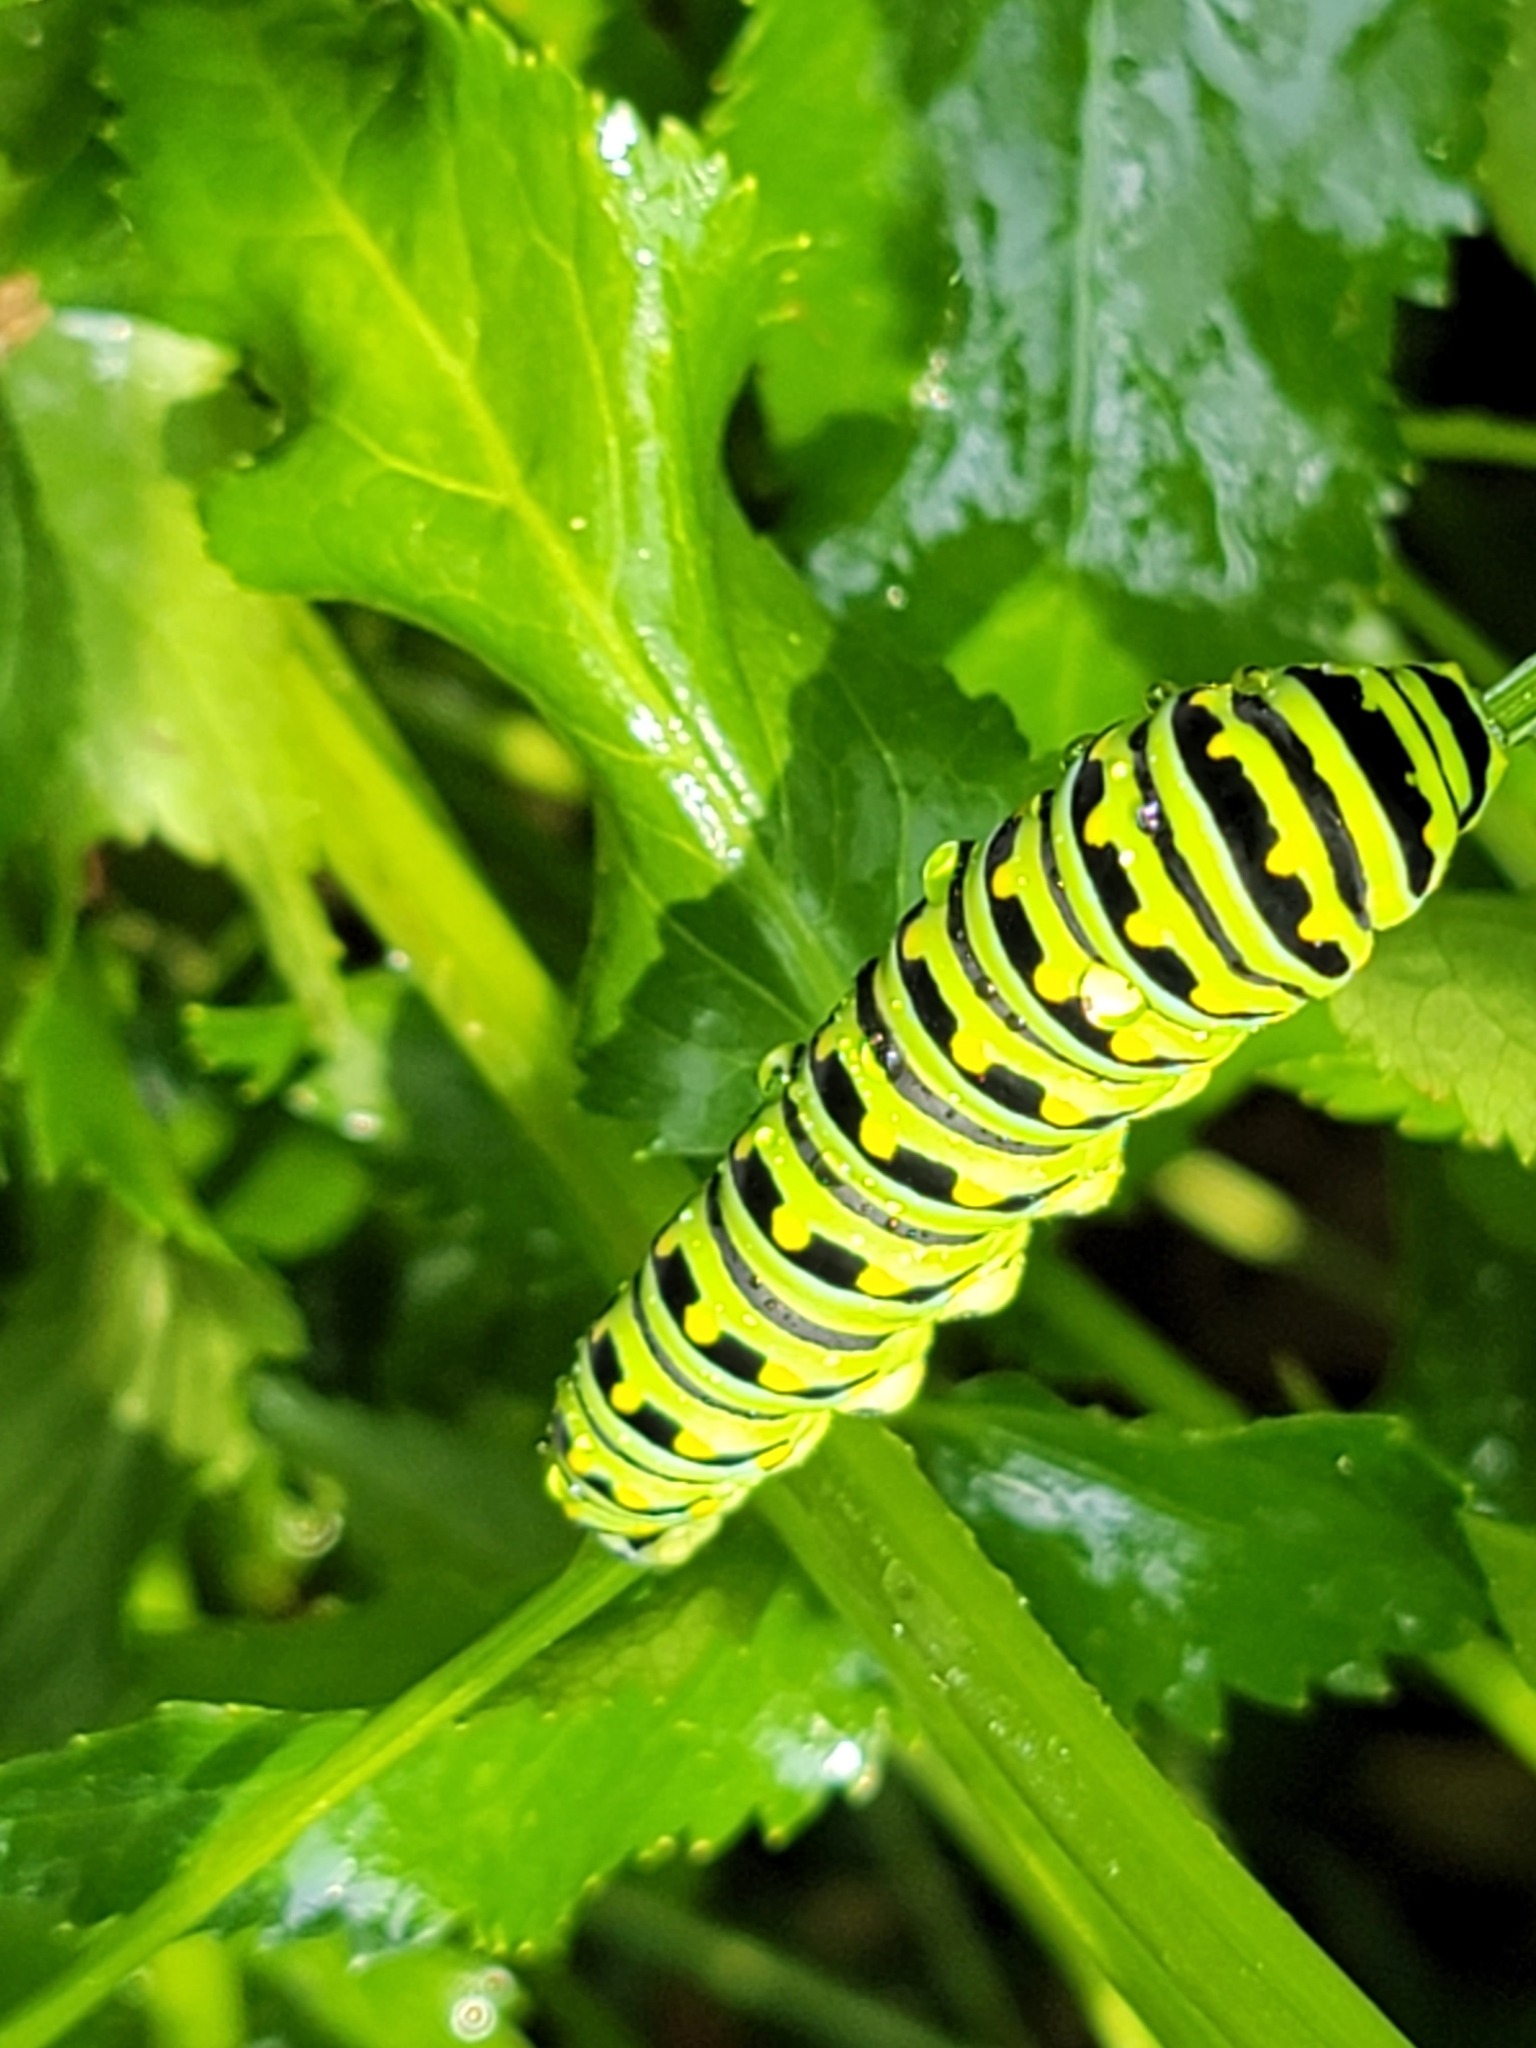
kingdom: Animalia
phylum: Arthropoda
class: Insecta
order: Lepidoptera
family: Papilionidae
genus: Papilio
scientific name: Papilio polyxenes
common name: Black swallowtail
